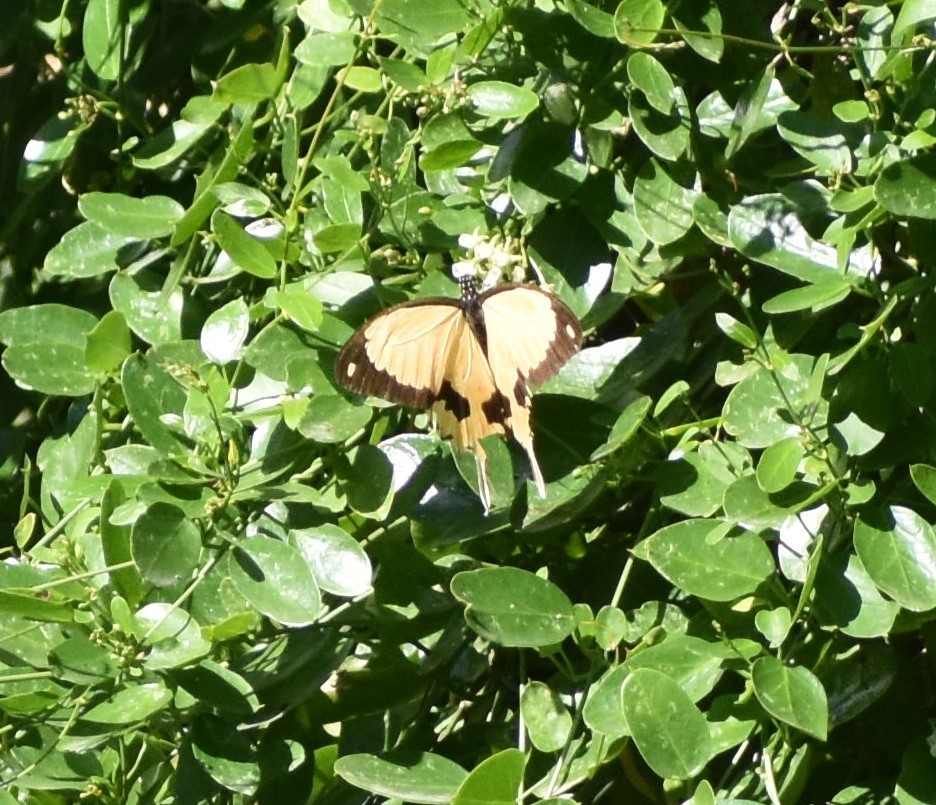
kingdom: Animalia
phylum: Arthropoda
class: Insecta
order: Lepidoptera
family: Papilionidae
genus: Papilio
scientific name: Papilio dardanus
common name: Flying handkerchief
